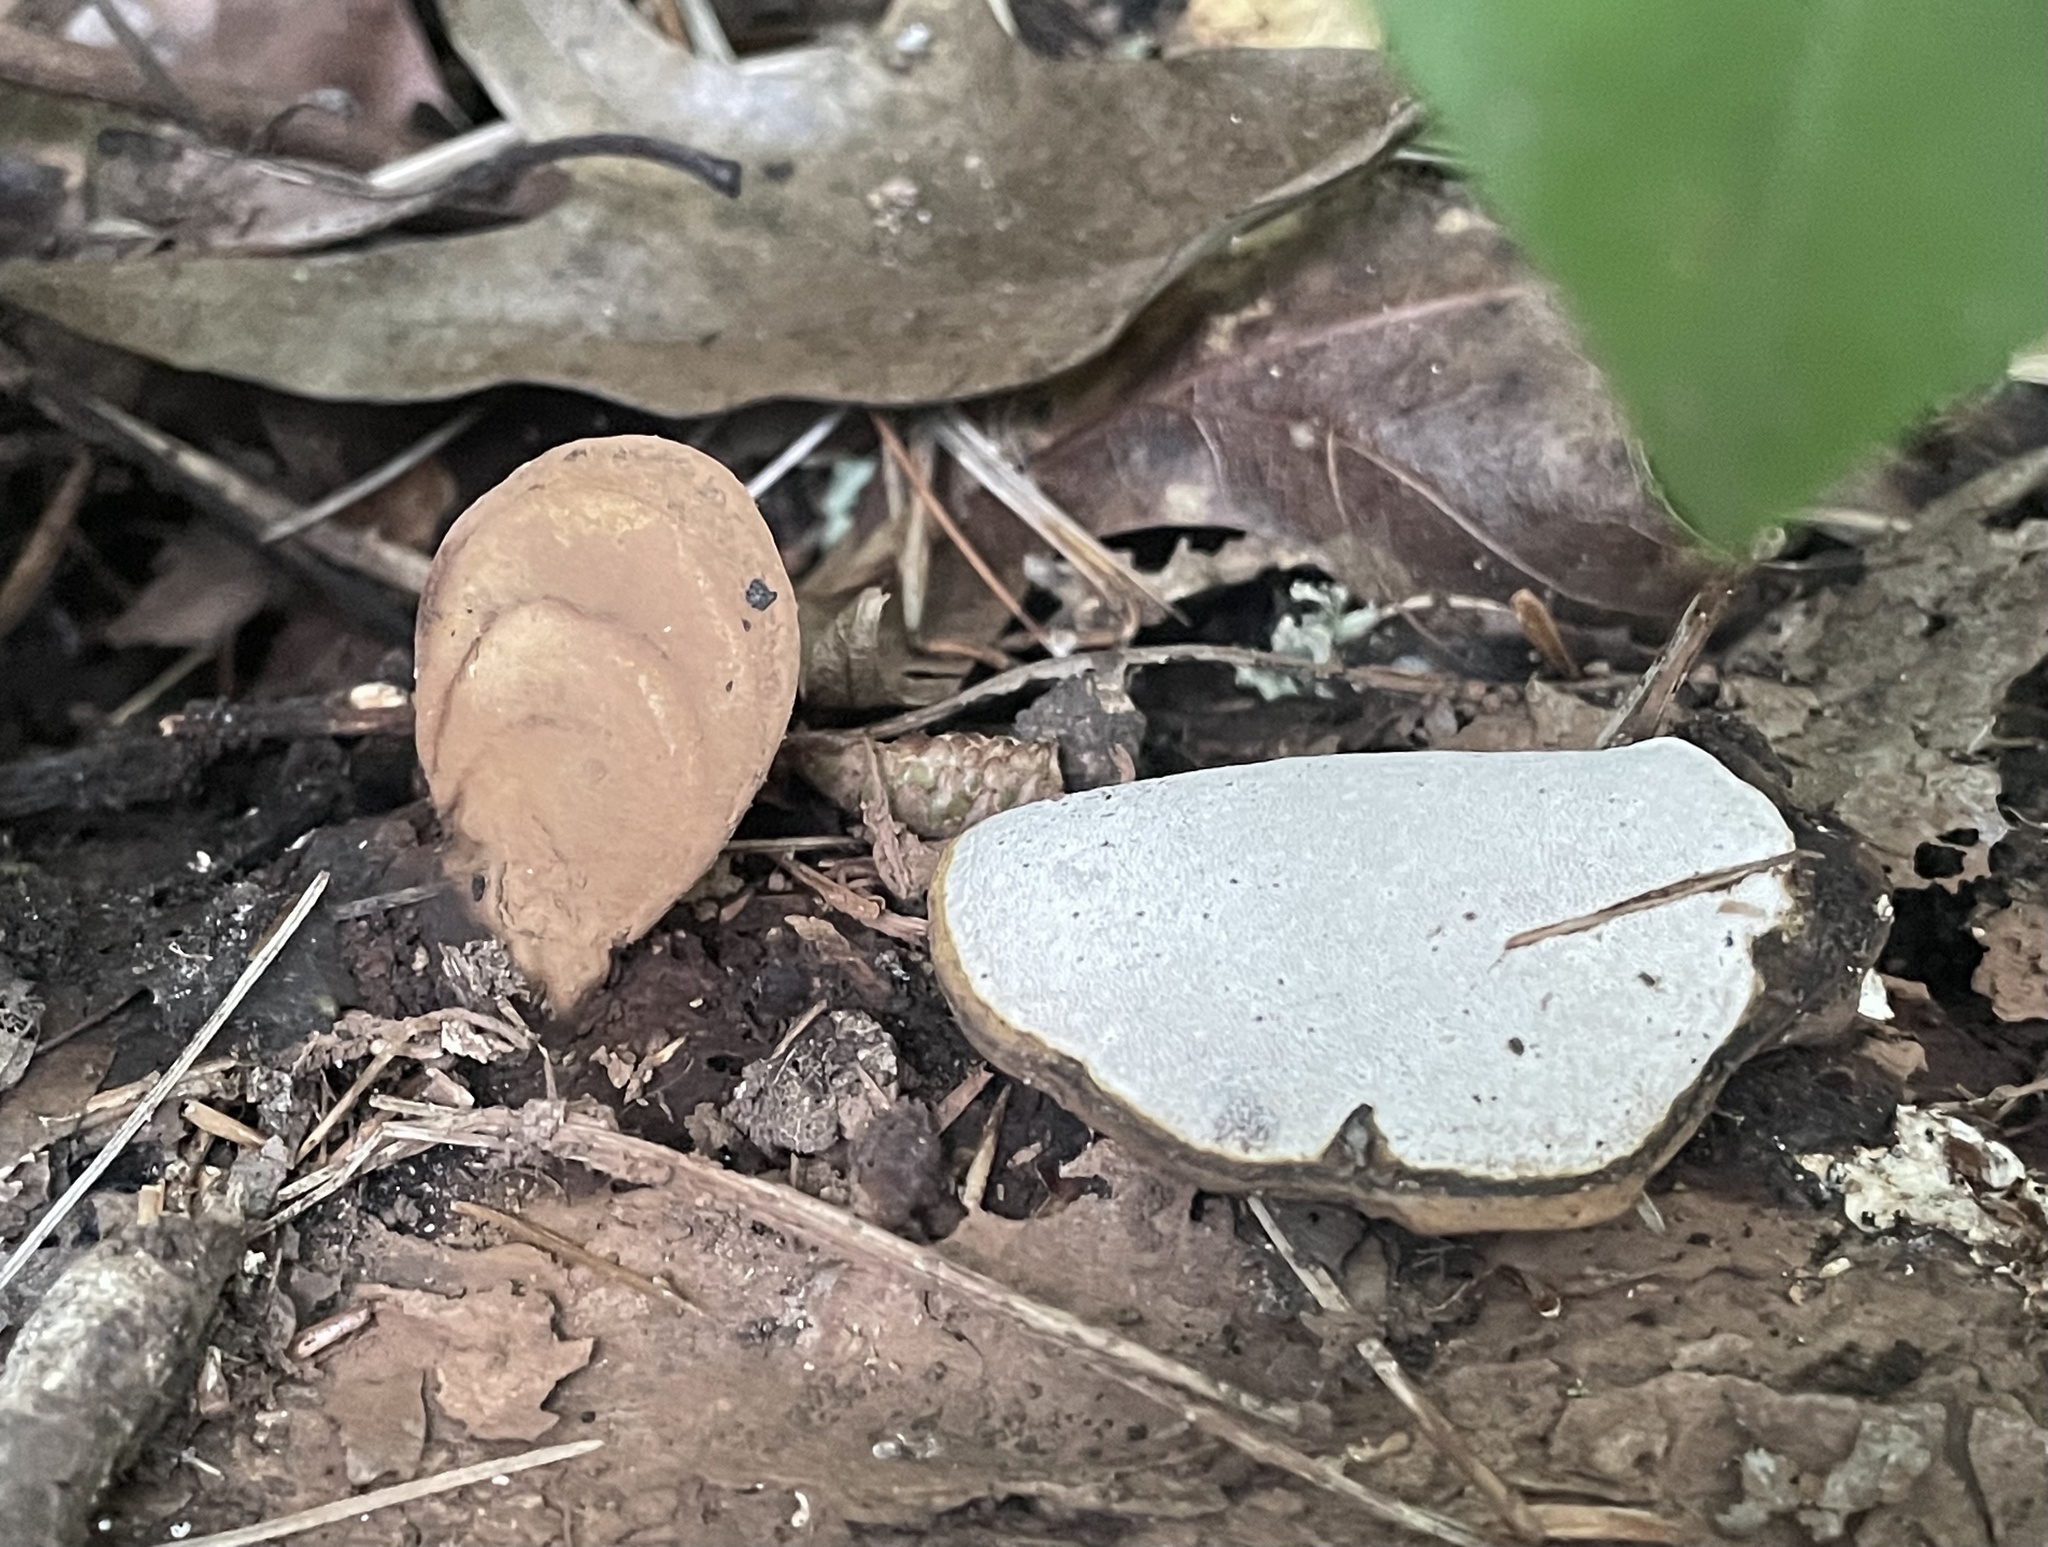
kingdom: Fungi
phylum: Basidiomycota
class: Agaricomycetes
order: Polyporales
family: Polyporaceae
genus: Ganoderma
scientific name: Ganoderma lobatum
